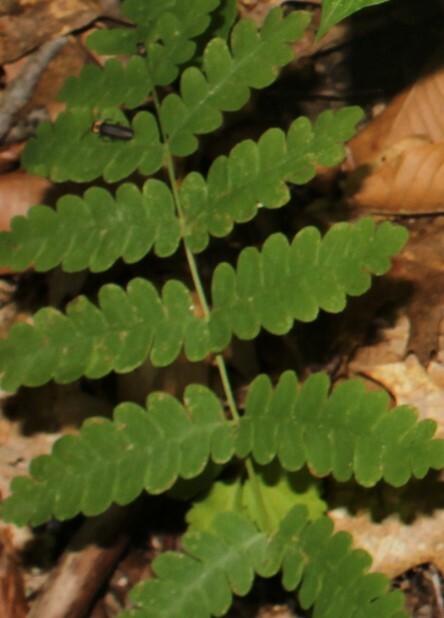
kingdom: Plantae
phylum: Tracheophyta
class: Polypodiopsida
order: Osmundales
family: Osmundaceae
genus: Claytosmunda
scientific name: Claytosmunda claytoniana
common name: Clayton's fern
